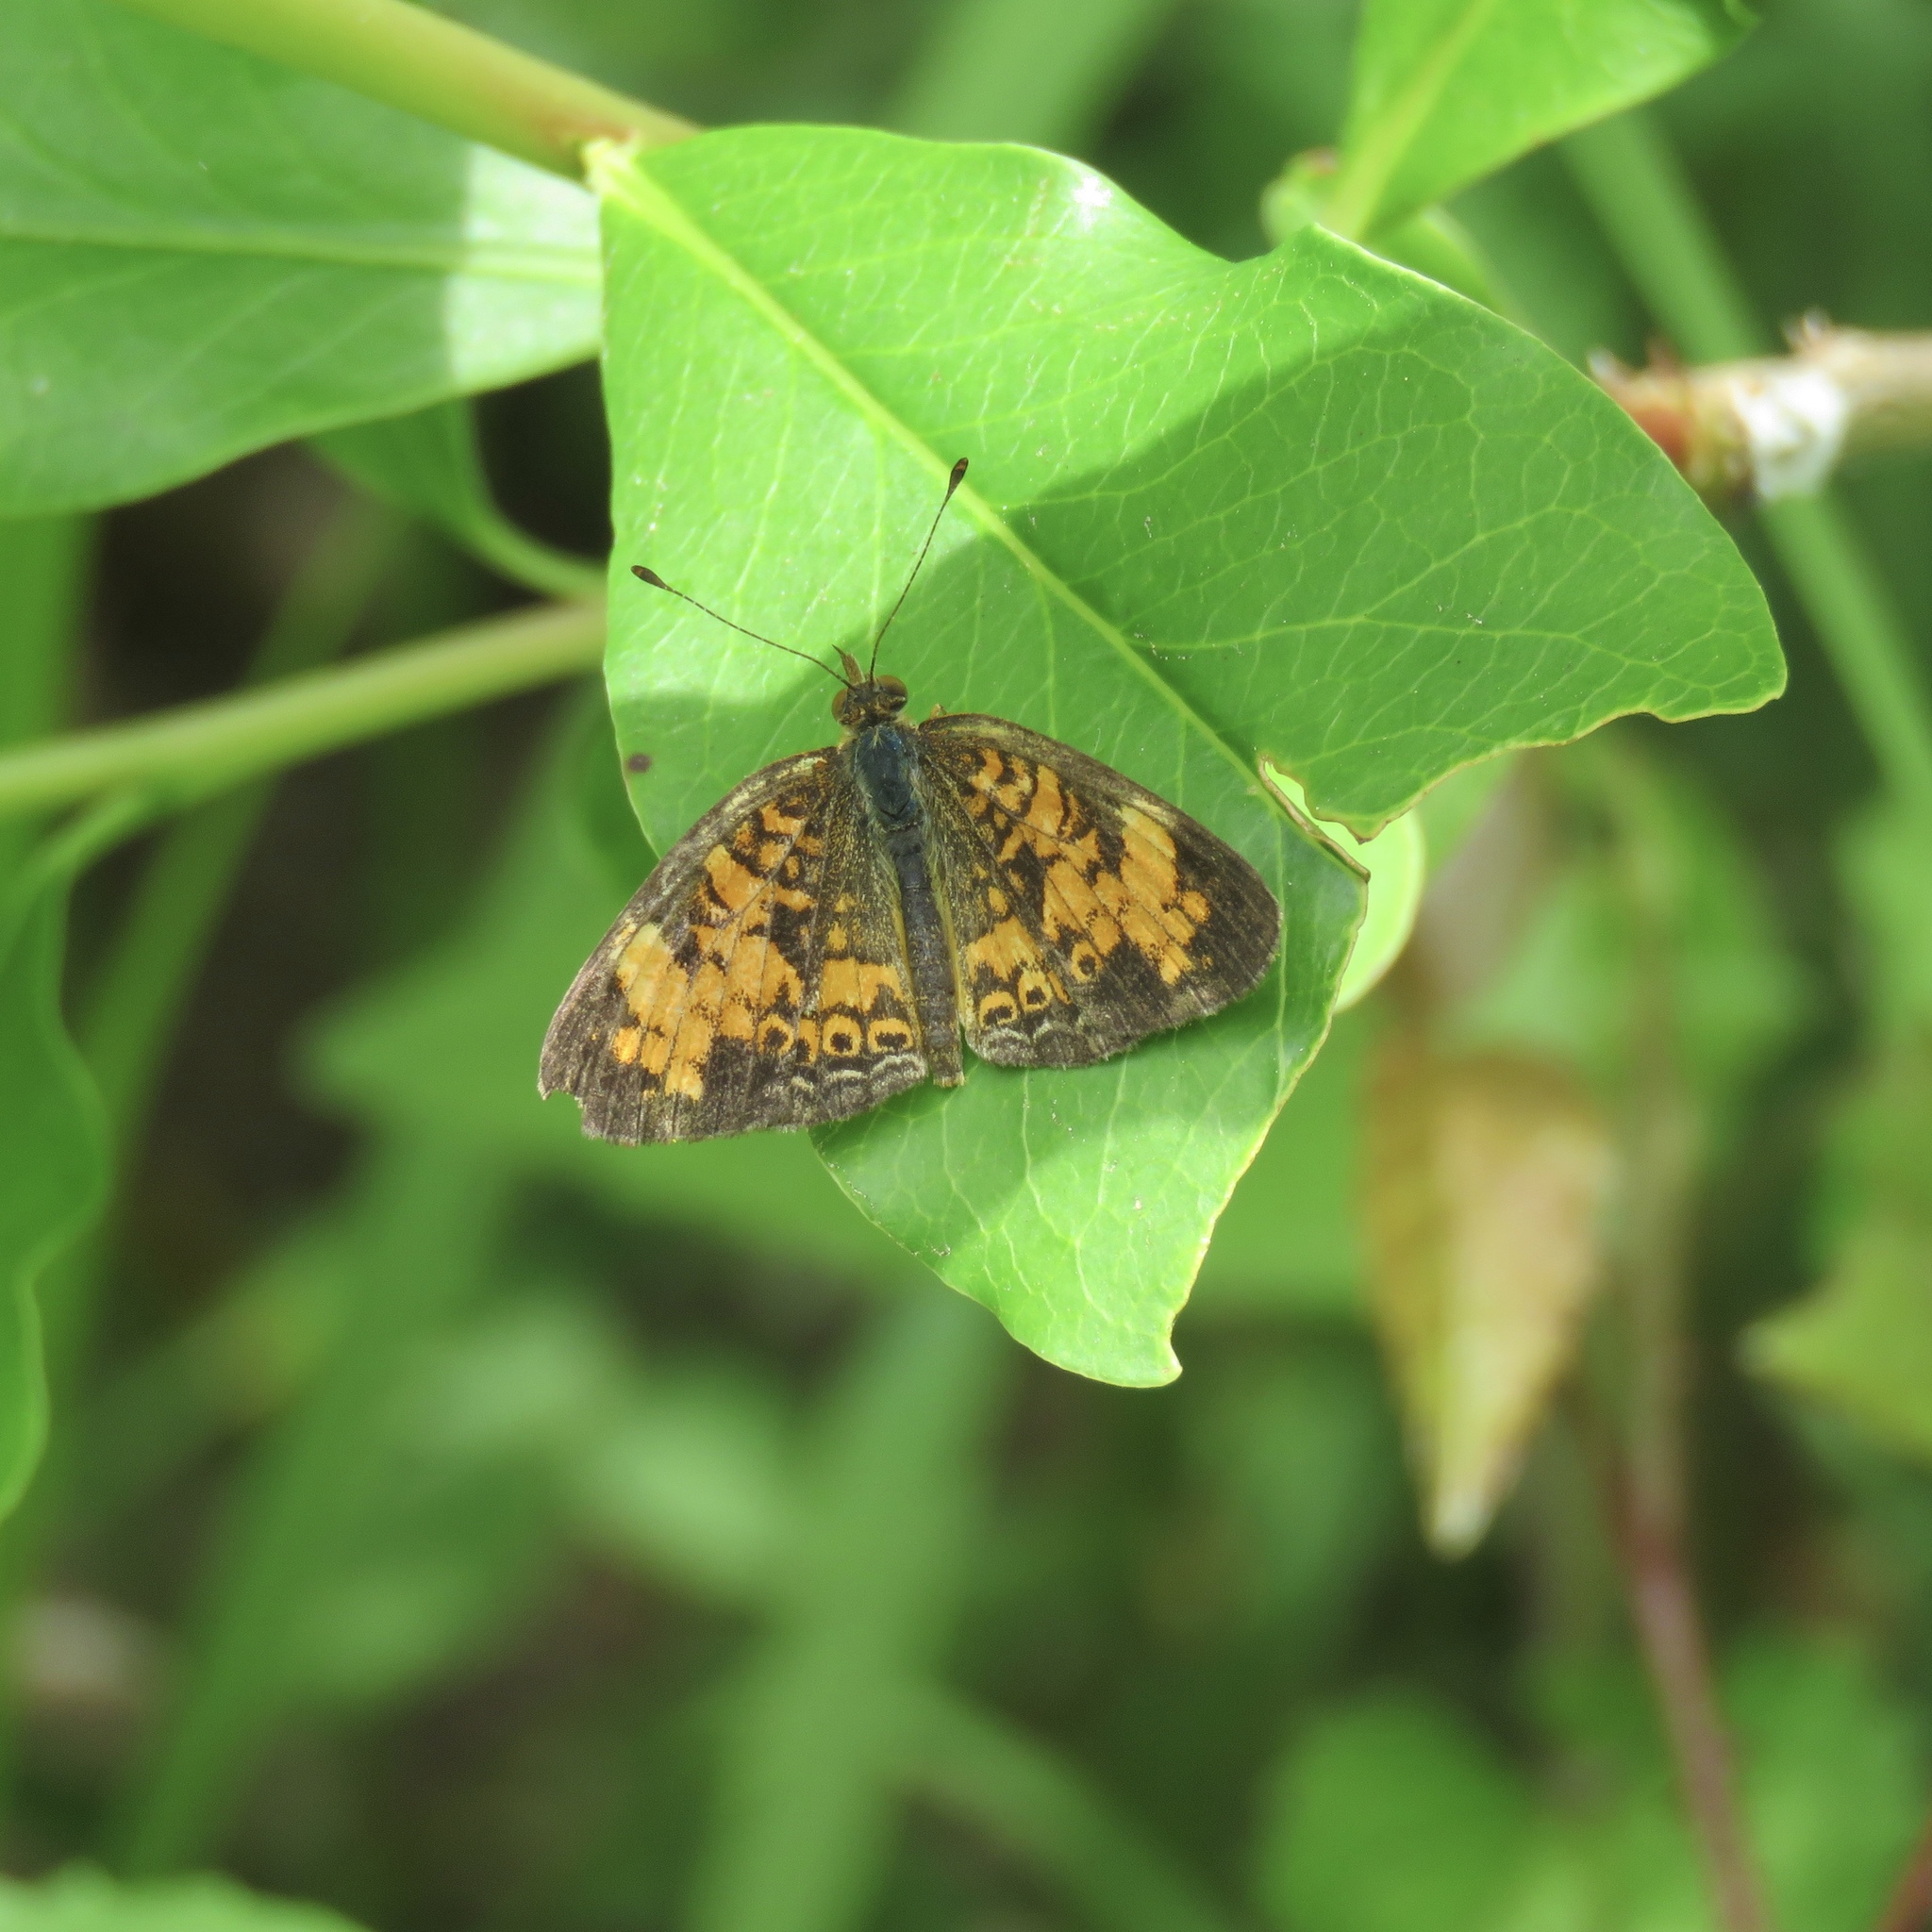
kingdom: Animalia
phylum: Arthropoda
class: Insecta
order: Lepidoptera
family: Nymphalidae
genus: Phyciodes
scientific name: Phyciodes tharos
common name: Pearl crescent
